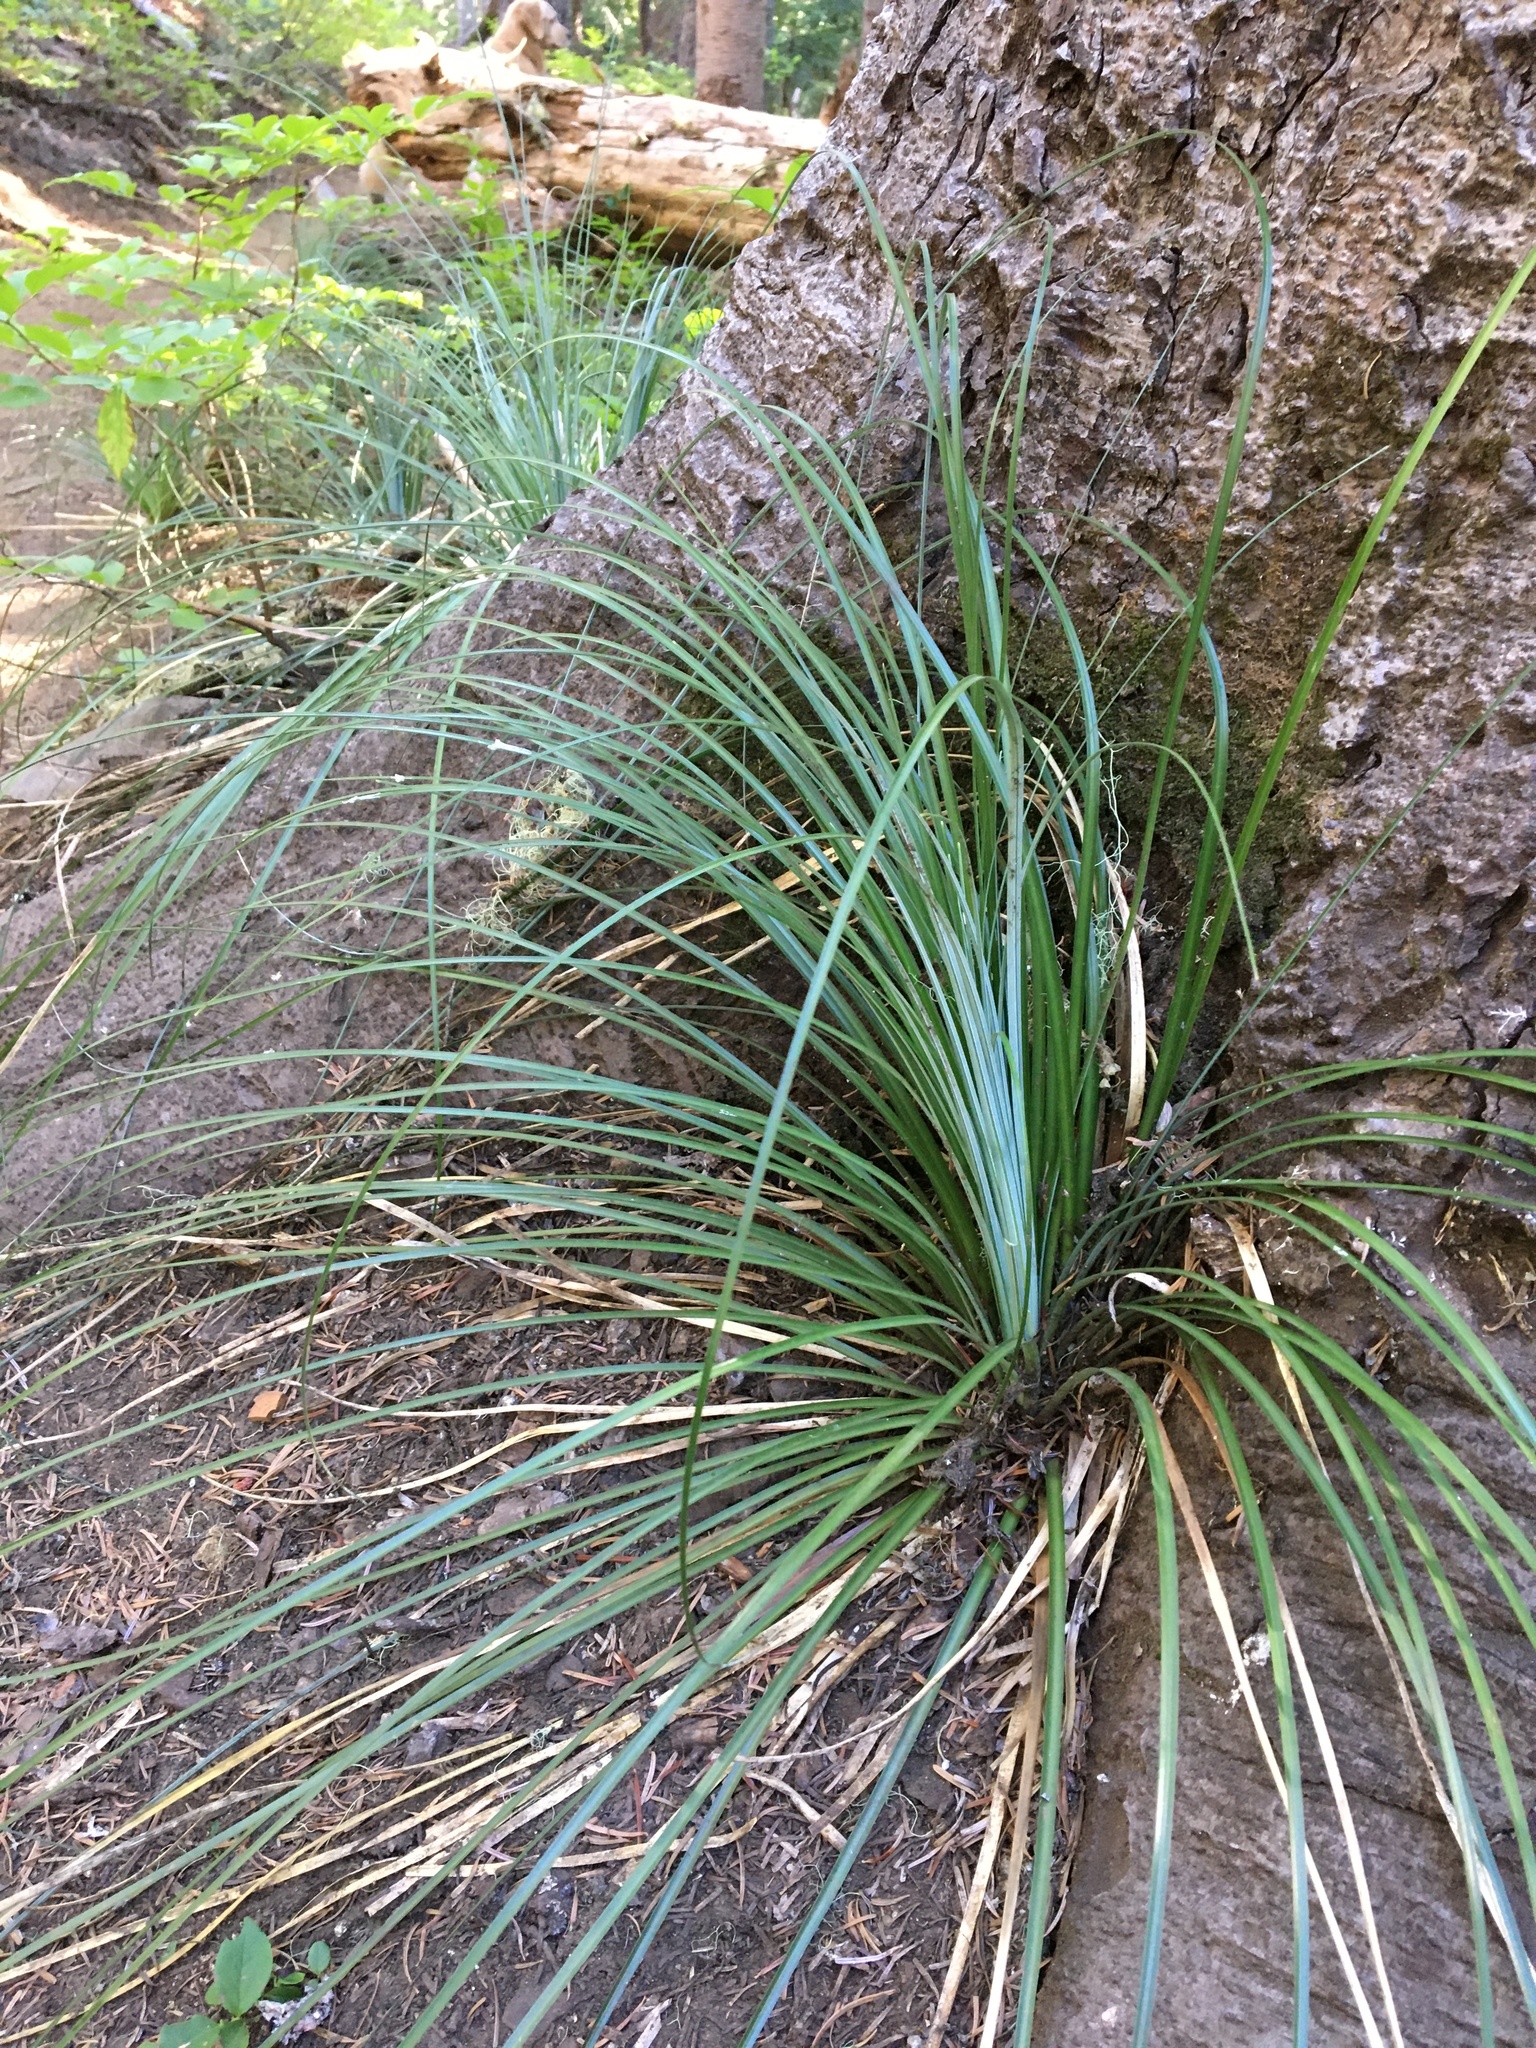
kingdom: Plantae
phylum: Tracheophyta
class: Liliopsida
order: Liliales
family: Melanthiaceae
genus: Xerophyllum
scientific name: Xerophyllum tenax
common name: Bear-grass
